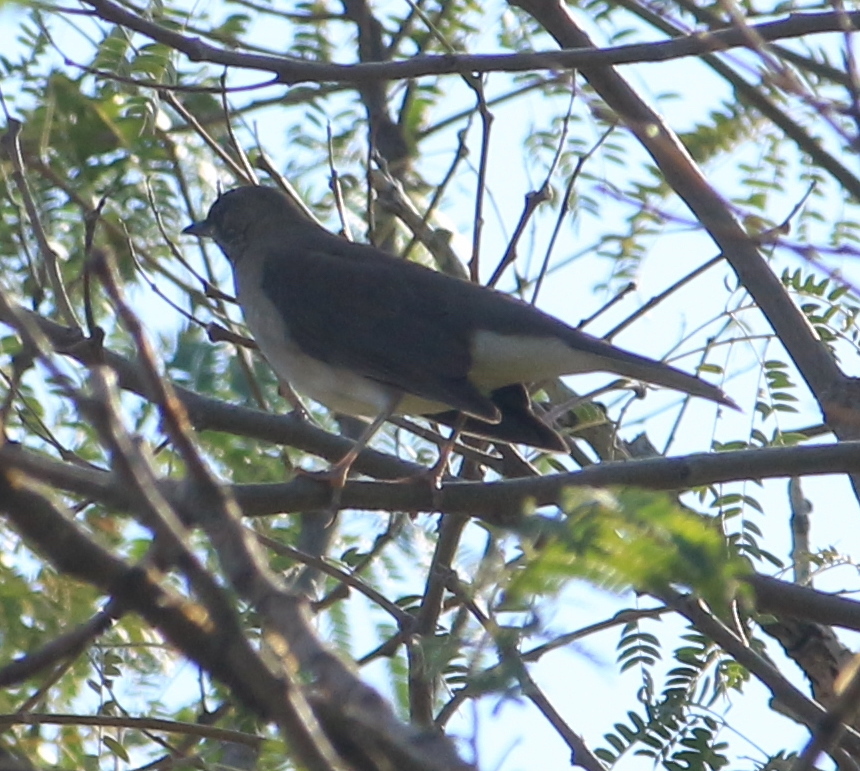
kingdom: Animalia
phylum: Chordata
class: Aves
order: Passeriformes
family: Turdidae
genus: Turdus
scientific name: Turdus amaurochalinus
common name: Creamy-bellied thrush
